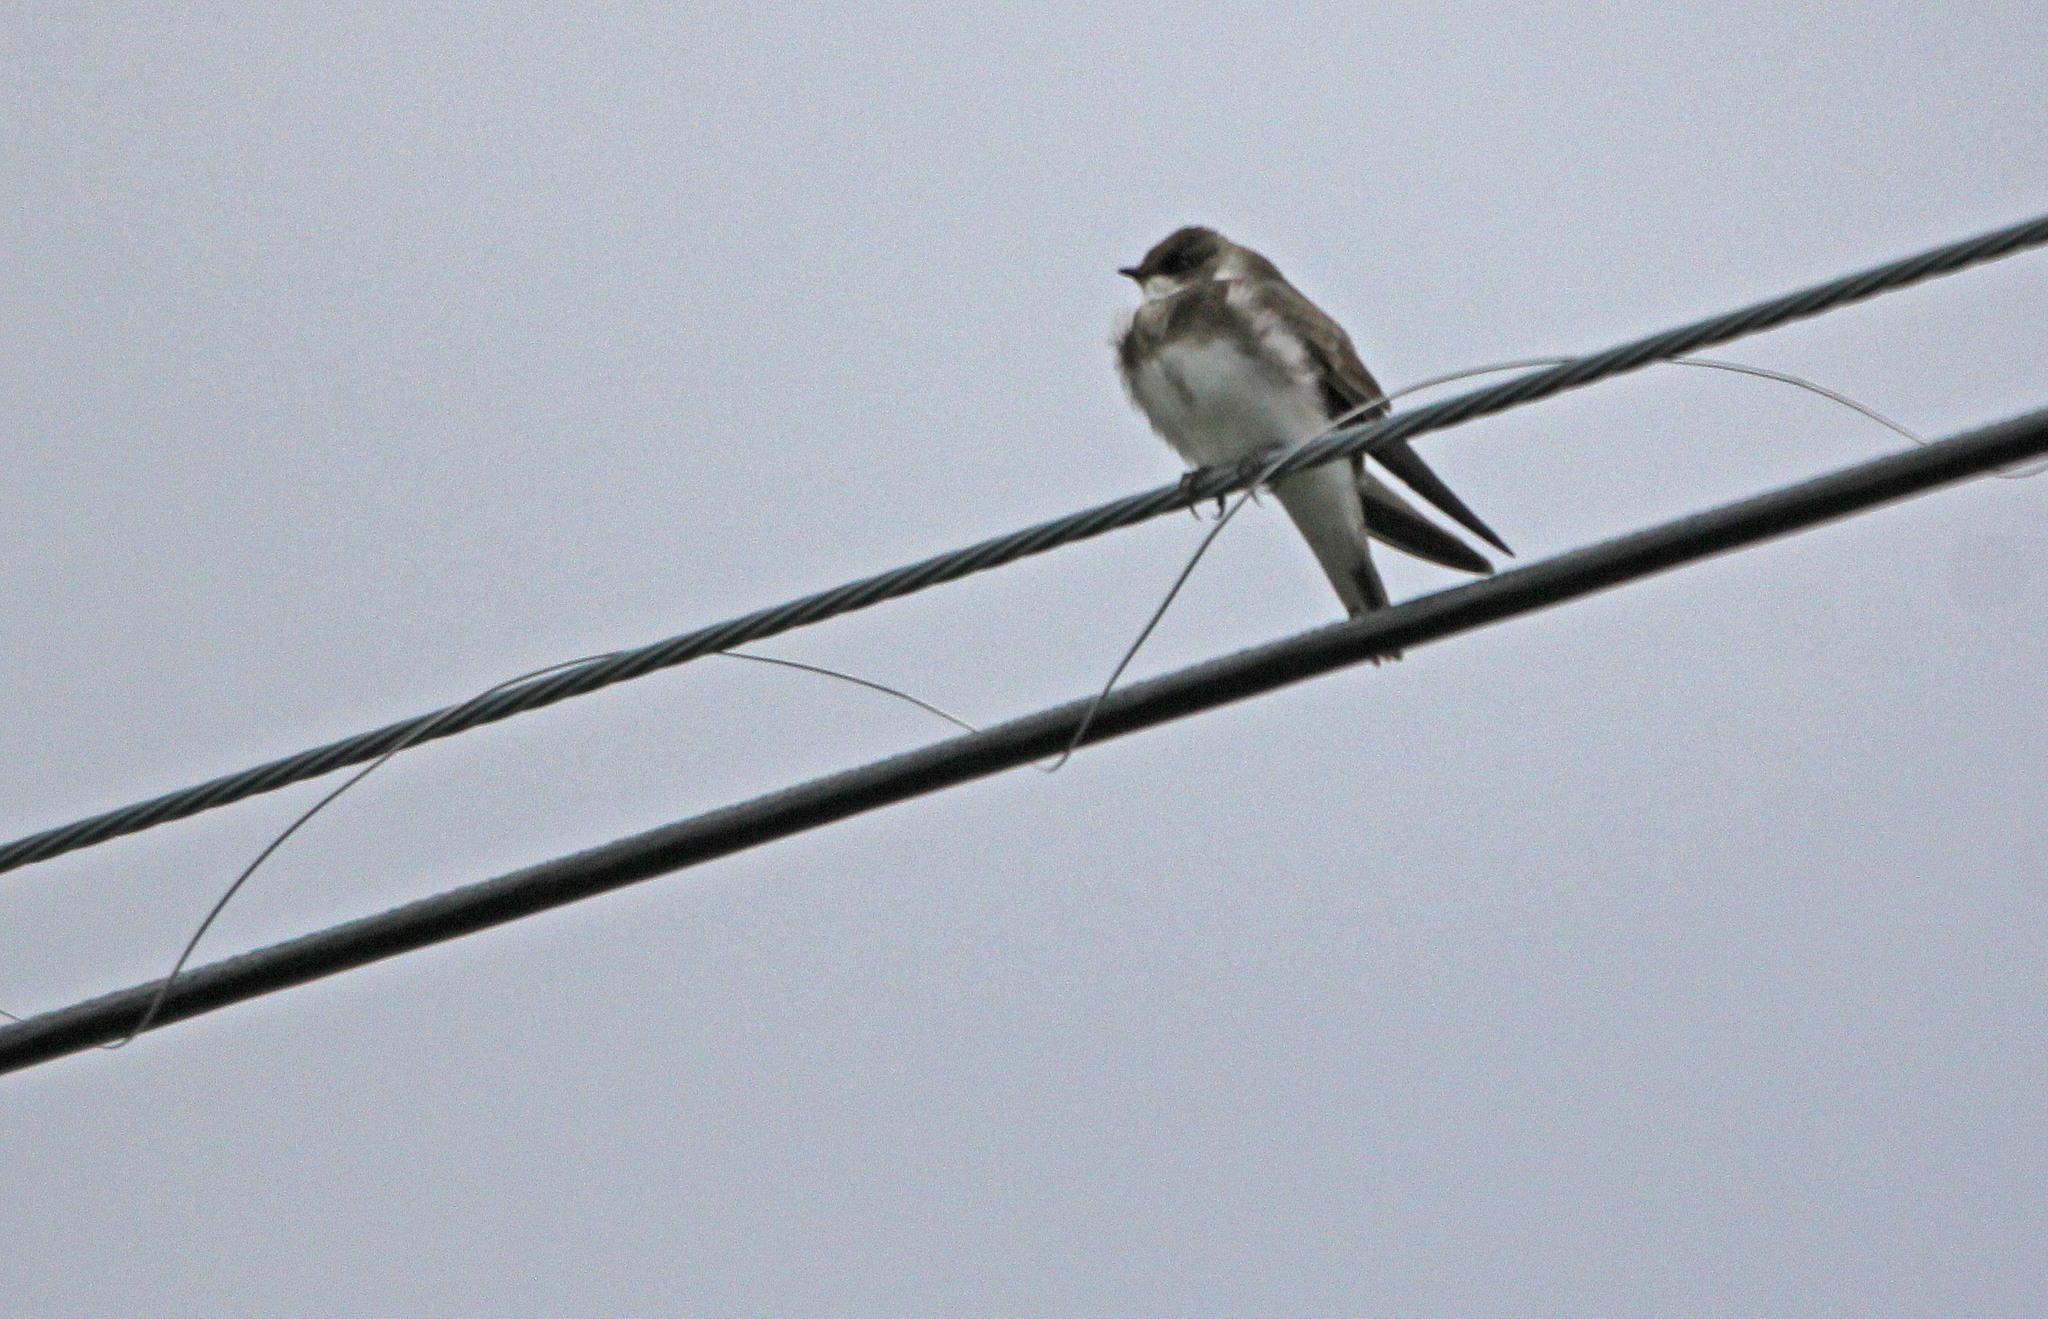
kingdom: Animalia
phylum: Chordata
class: Aves
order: Passeriformes
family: Hirundinidae
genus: Riparia
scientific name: Riparia riparia
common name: Sand martin
